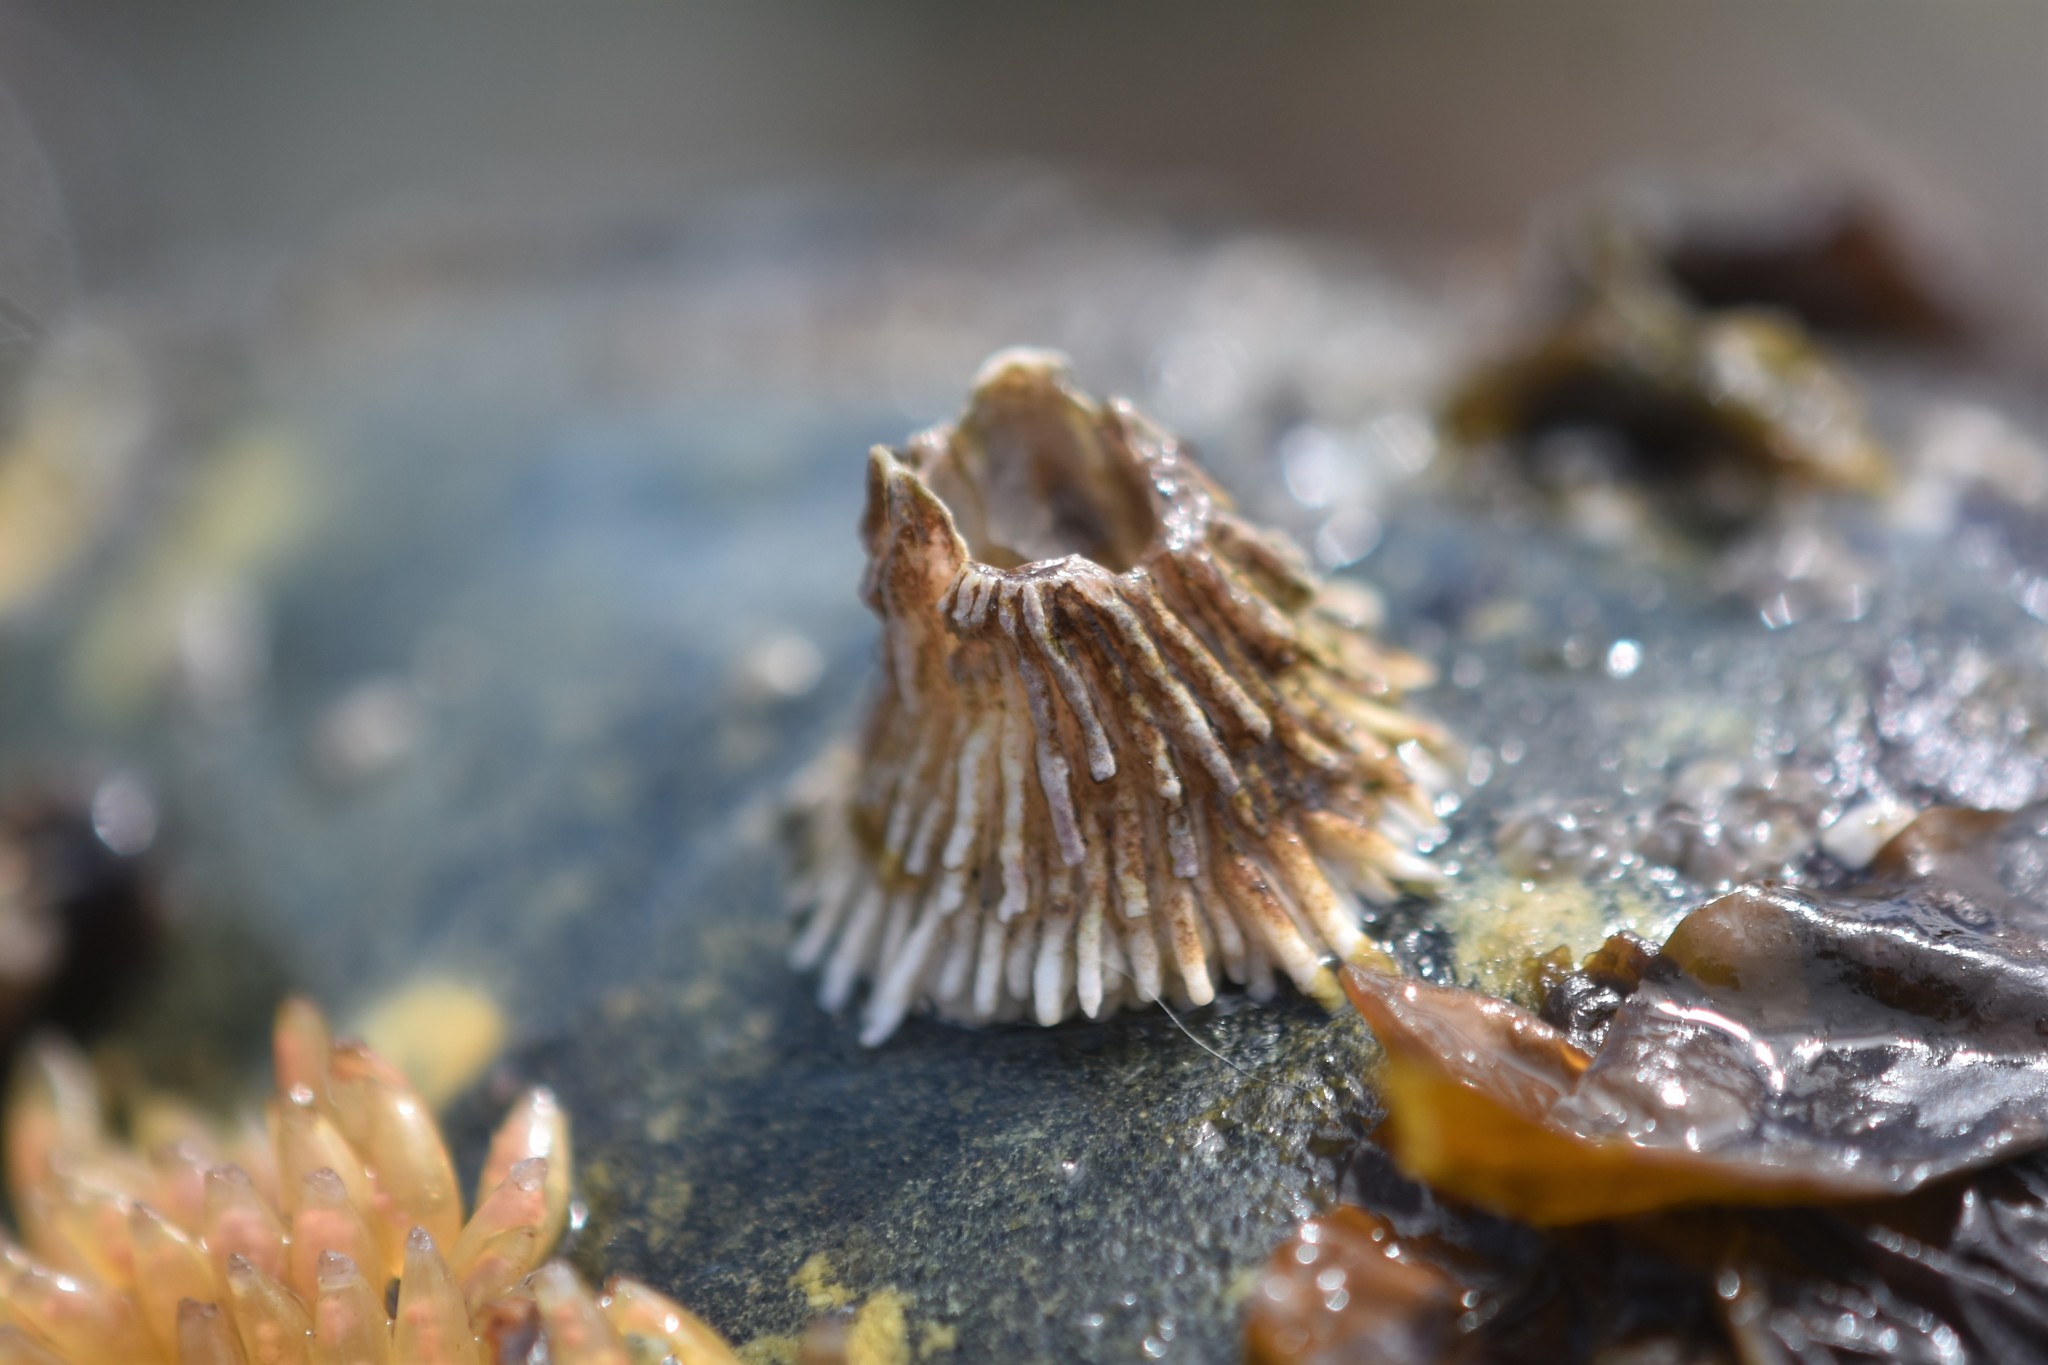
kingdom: Animalia
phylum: Arthropoda
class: Maxillopoda
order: Sessilia
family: Archaeobalanidae
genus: Semibalanus
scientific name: Semibalanus cariosus
